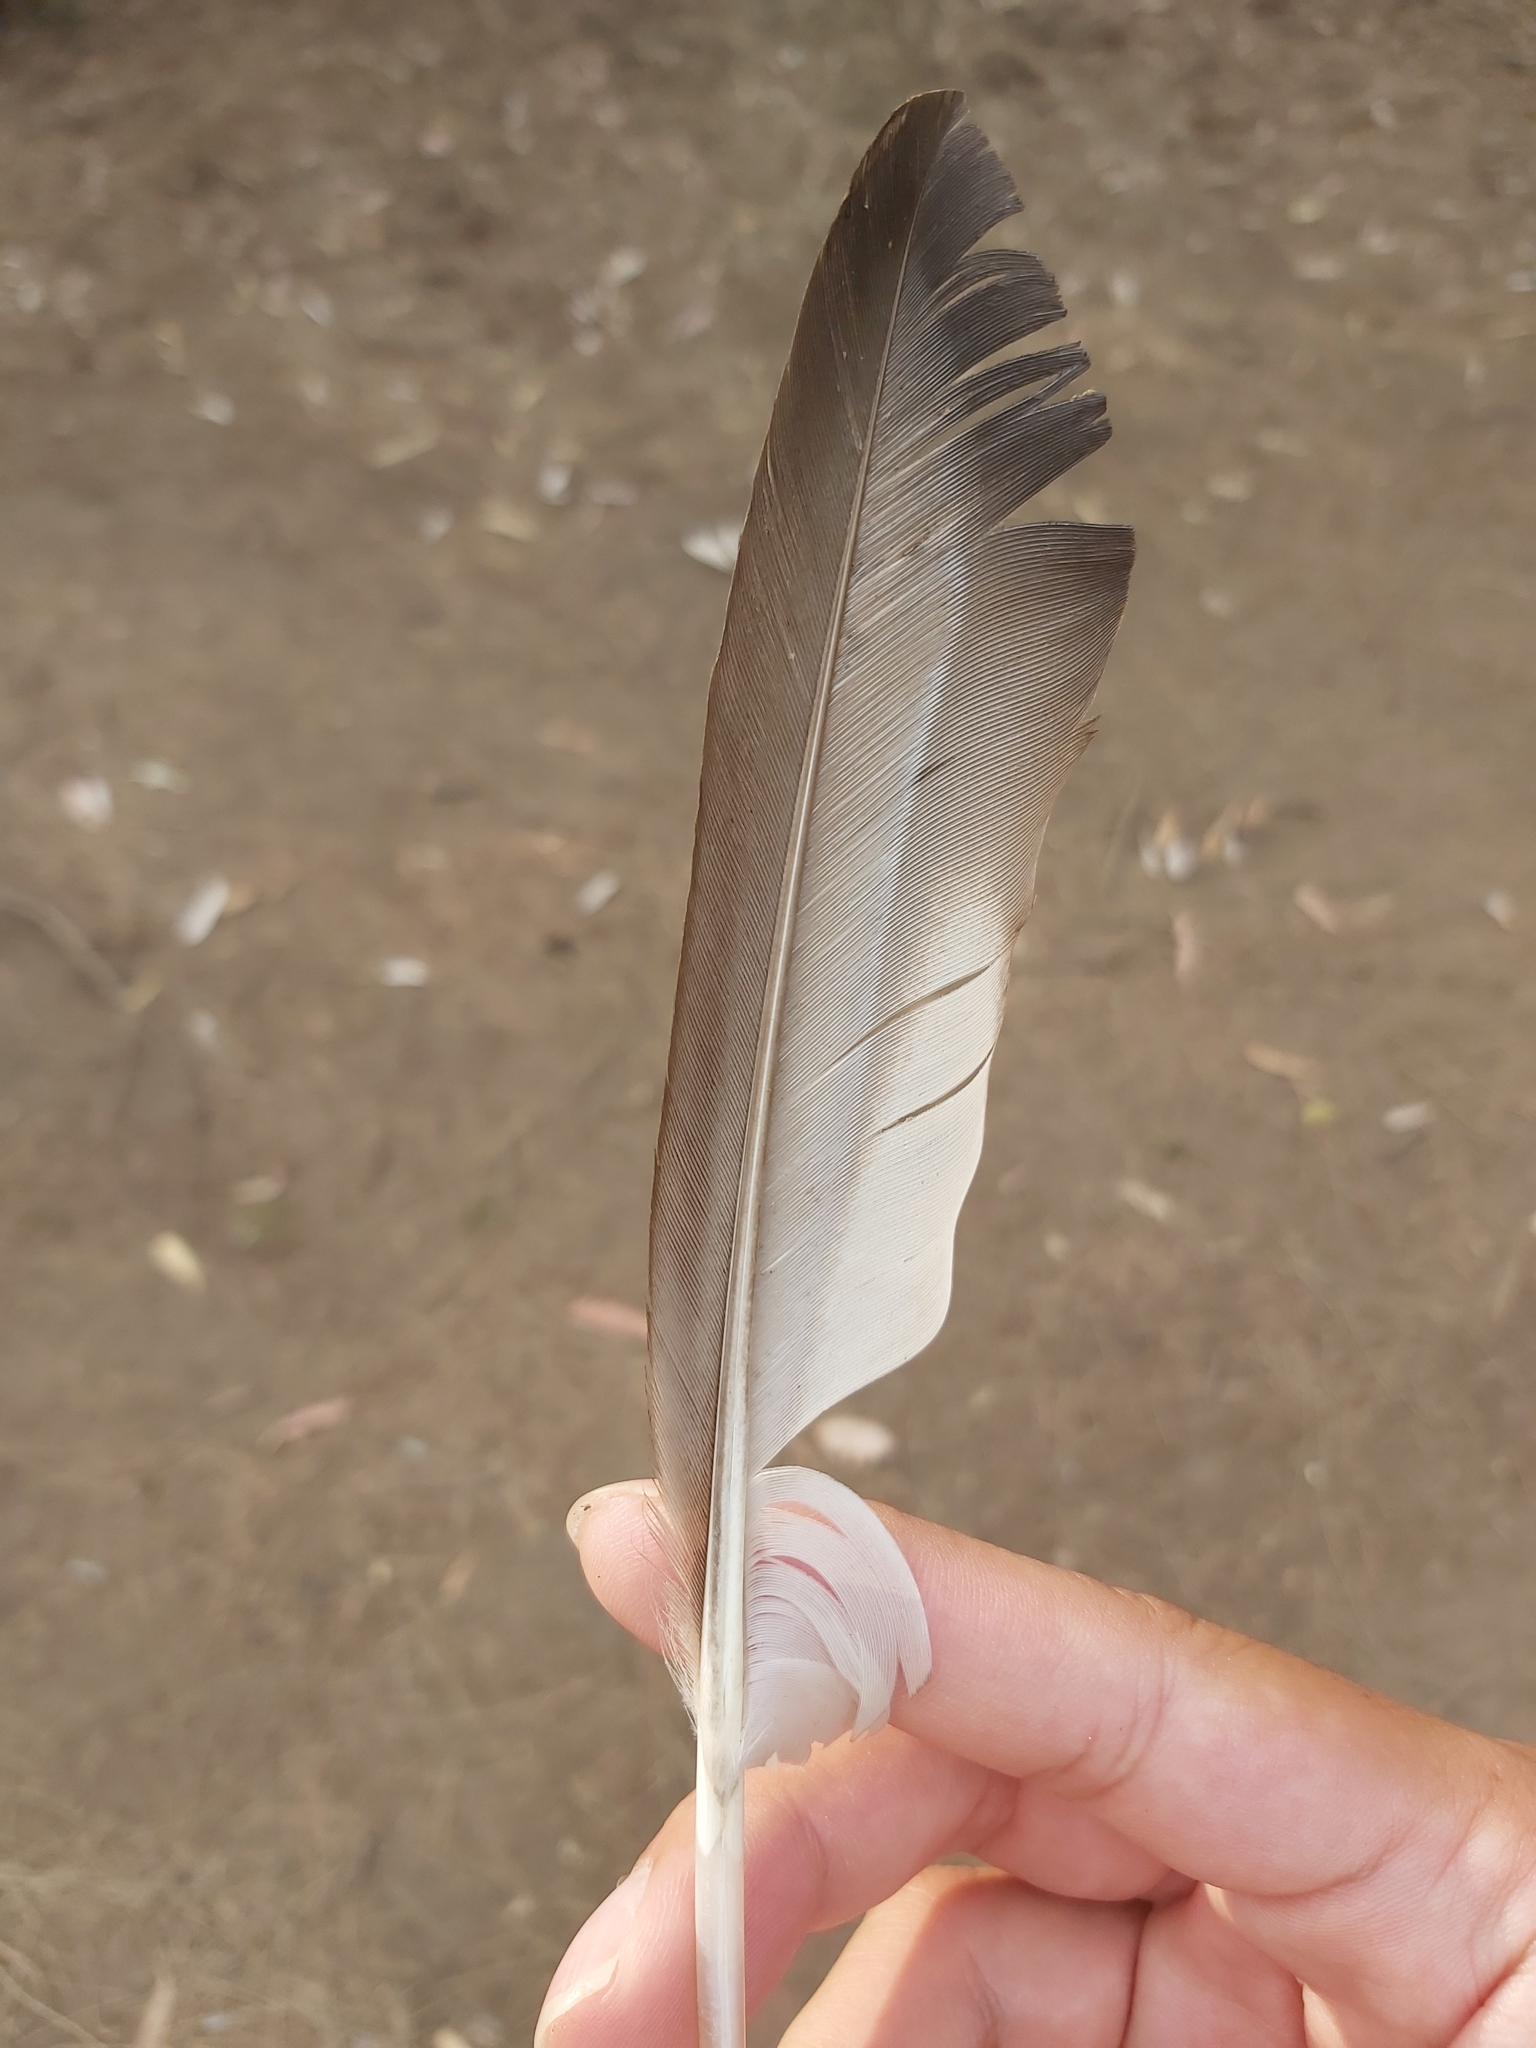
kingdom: Animalia
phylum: Chordata
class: Aves
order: Anseriformes
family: Anatidae
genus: Chenonetta
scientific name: Chenonetta jubata
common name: Maned duck
